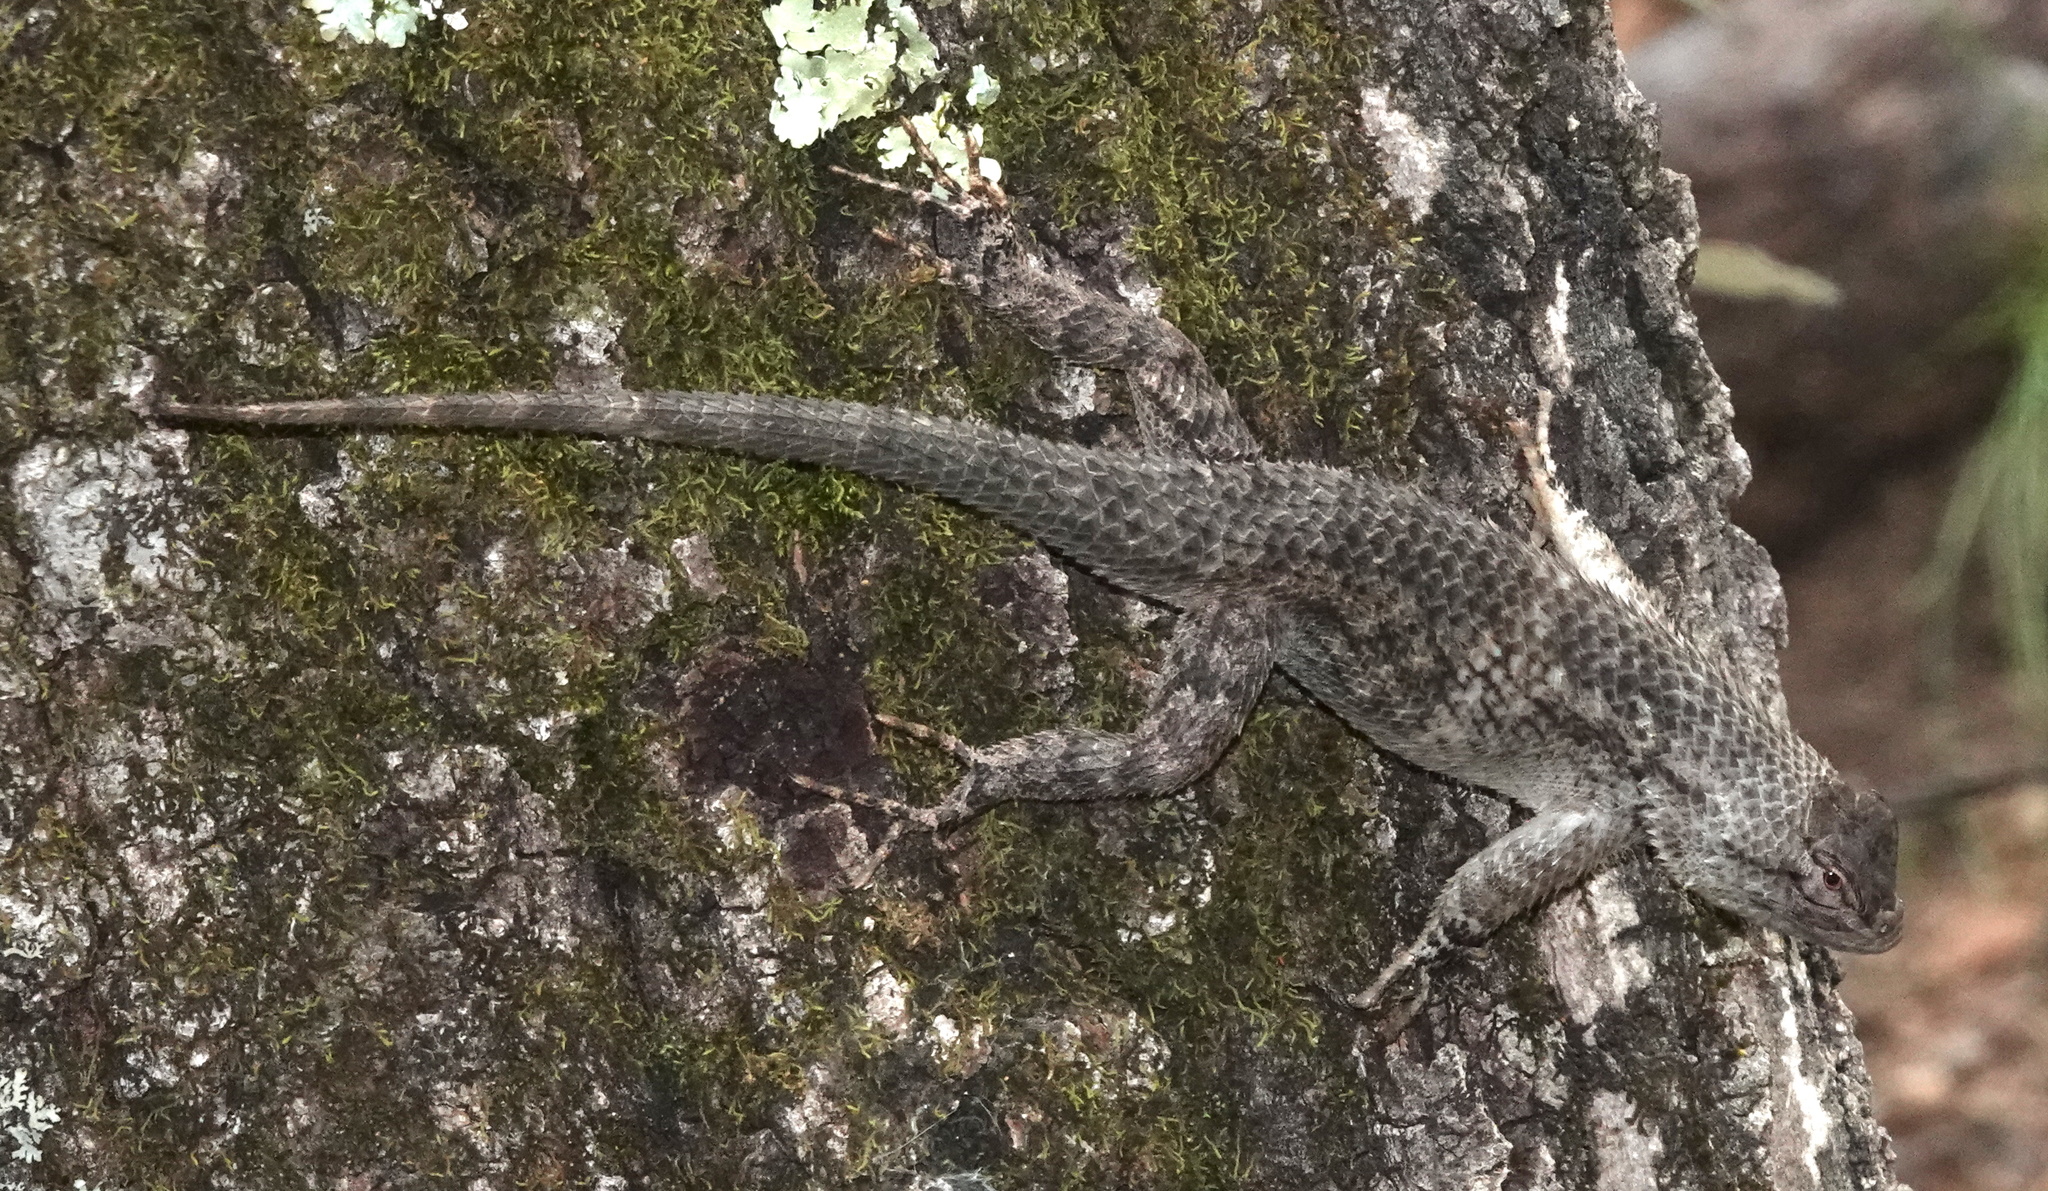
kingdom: Animalia
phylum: Chordata
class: Squamata
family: Phrynosomatidae
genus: Sceloporus
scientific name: Sceloporus clarkii
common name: Clark's spiny lizard
